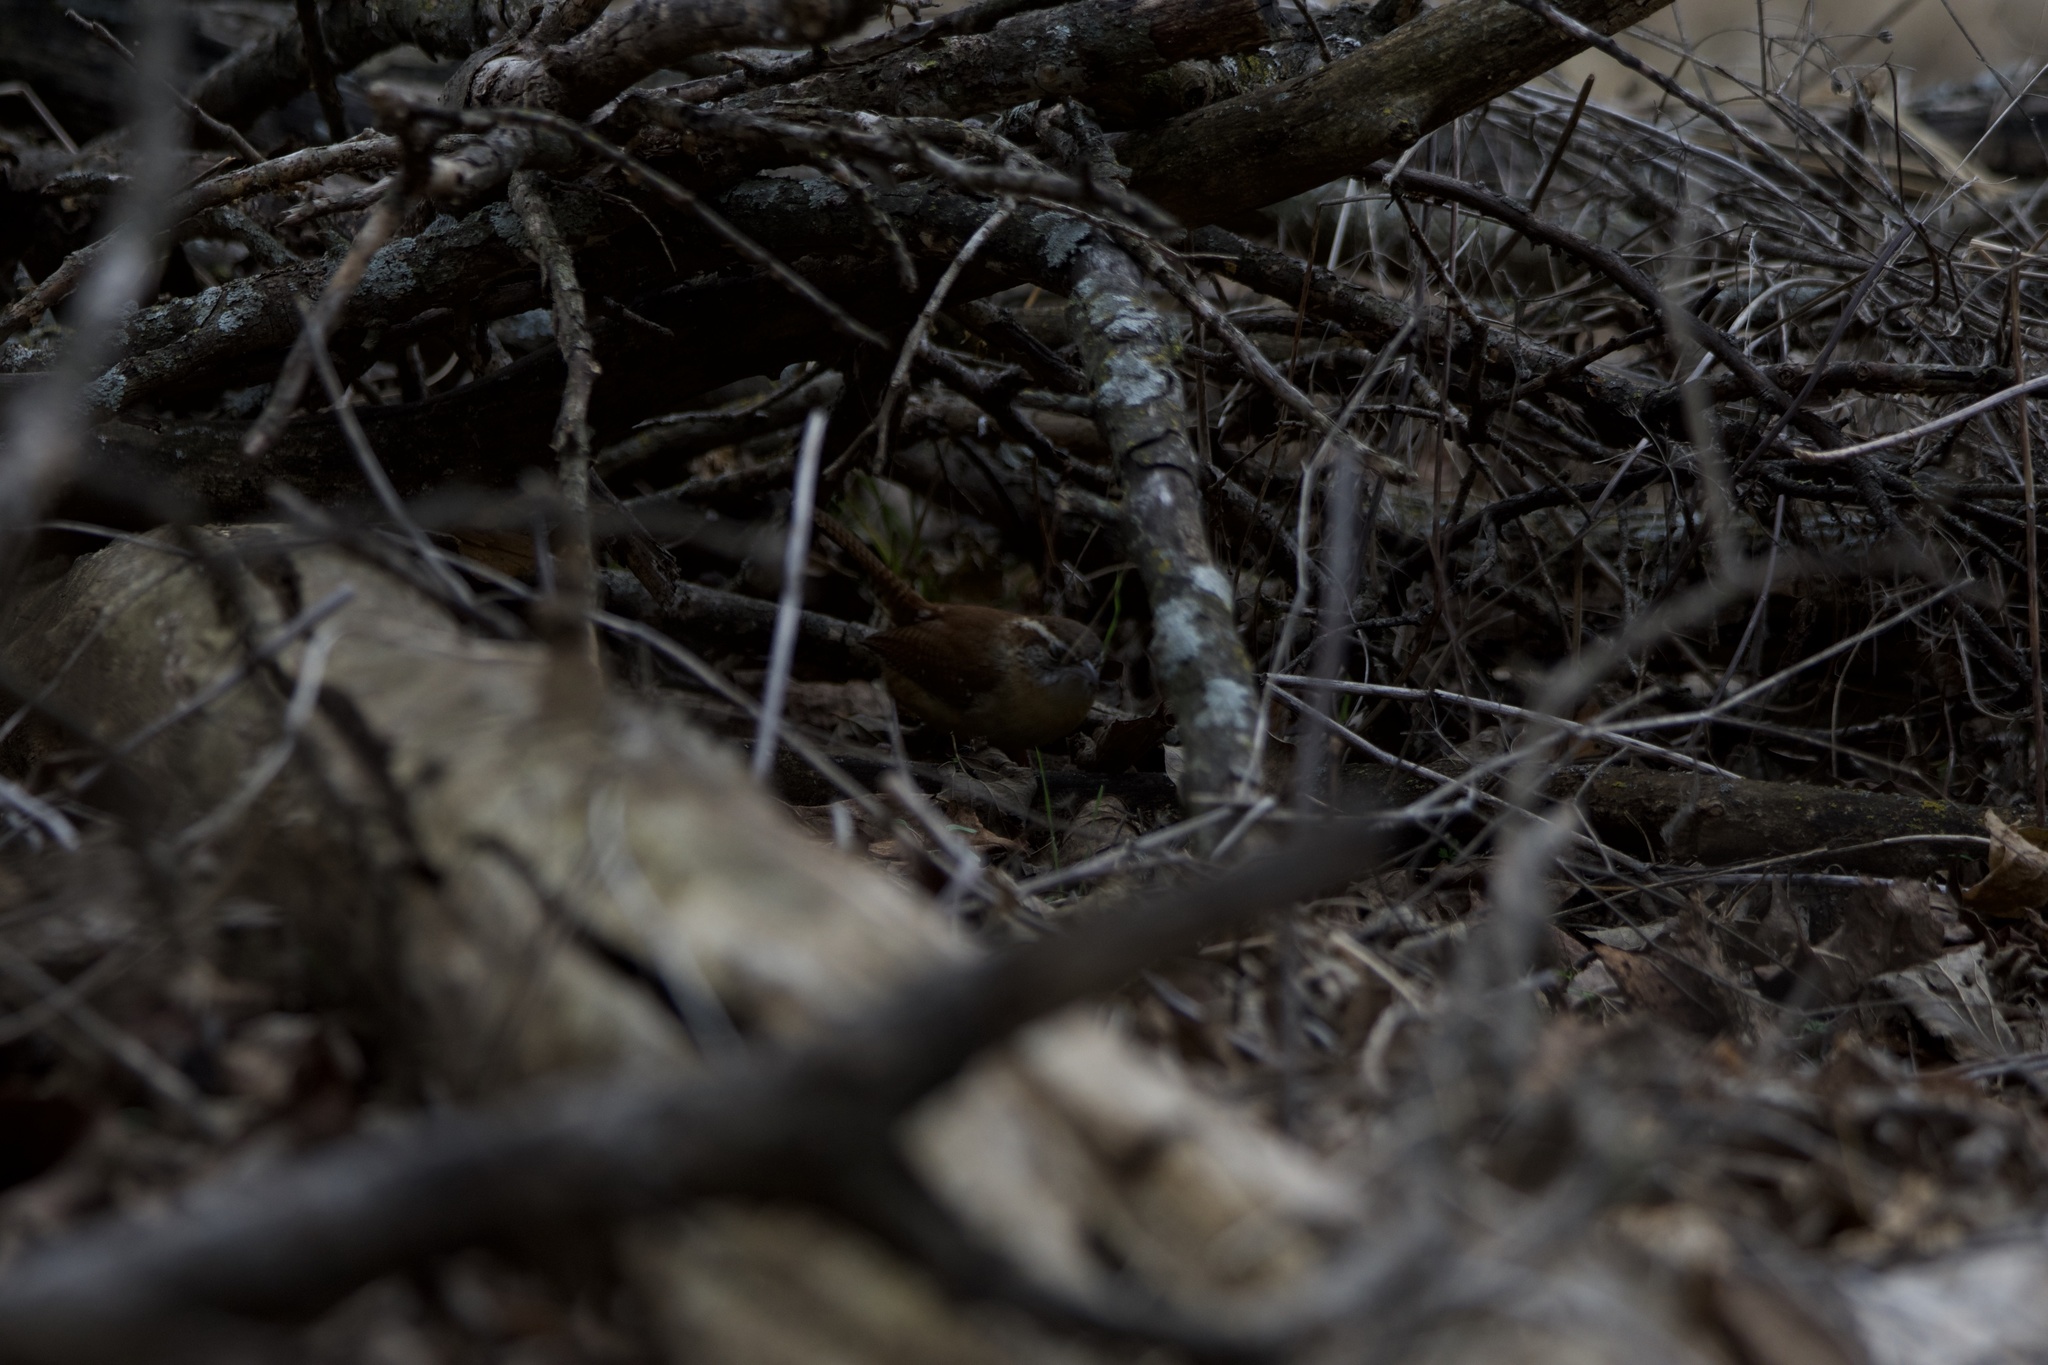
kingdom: Animalia
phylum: Chordata
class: Aves
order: Passeriformes
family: Troglodytidae
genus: Thryothorus
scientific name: Thryothorus ludovicianus
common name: Carolina wren
